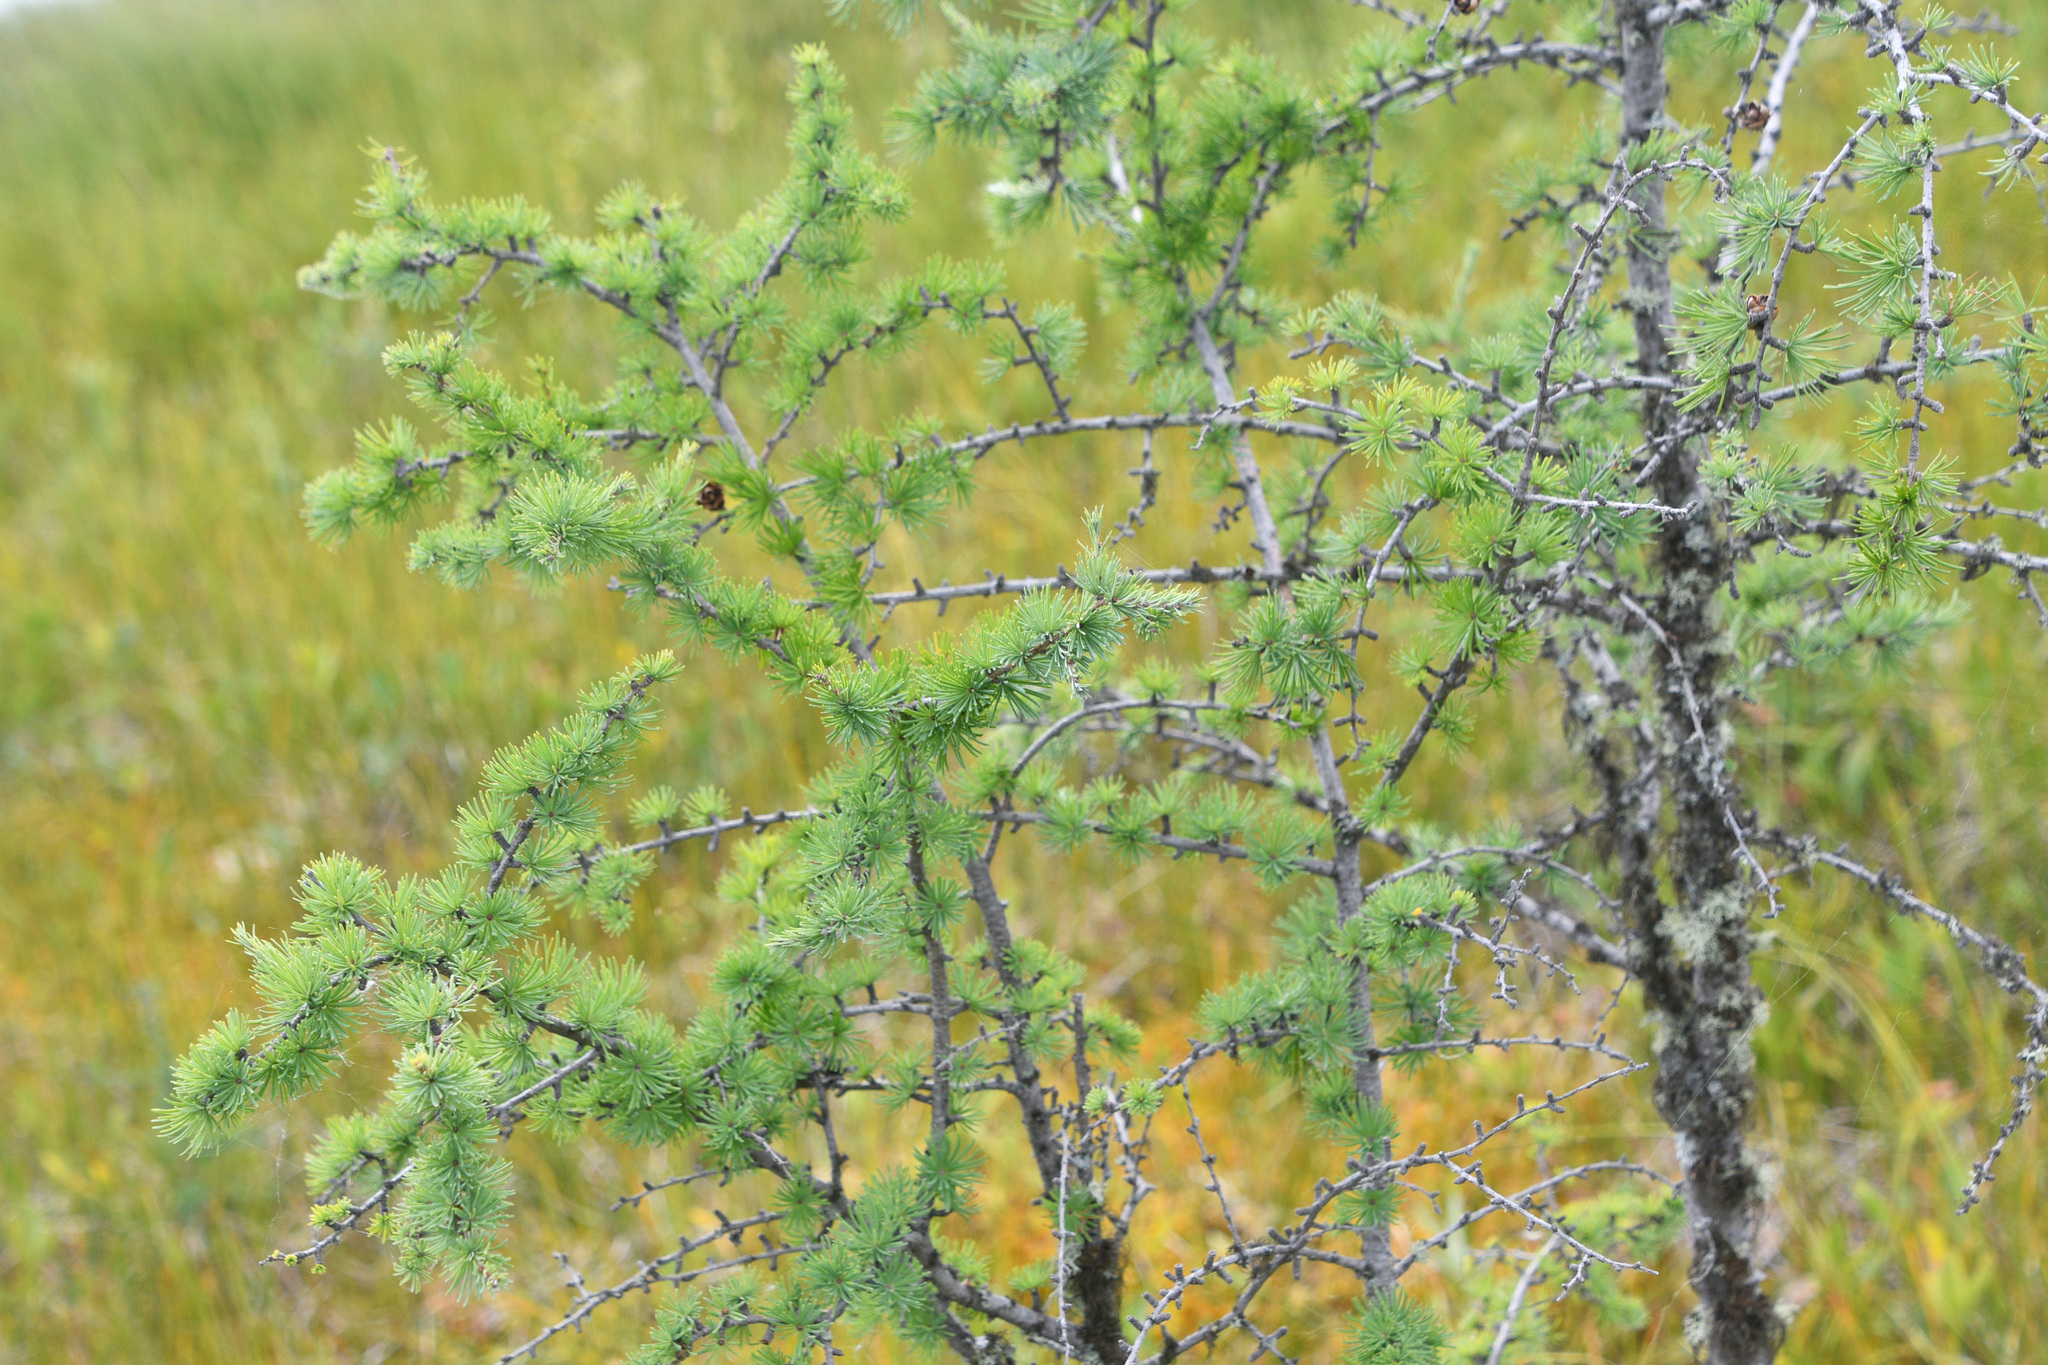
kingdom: Plantae
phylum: Tracheophyta
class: Pinopsida
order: Pinales
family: Pinaceae
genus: Larix
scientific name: Larix laricina
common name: American larch
